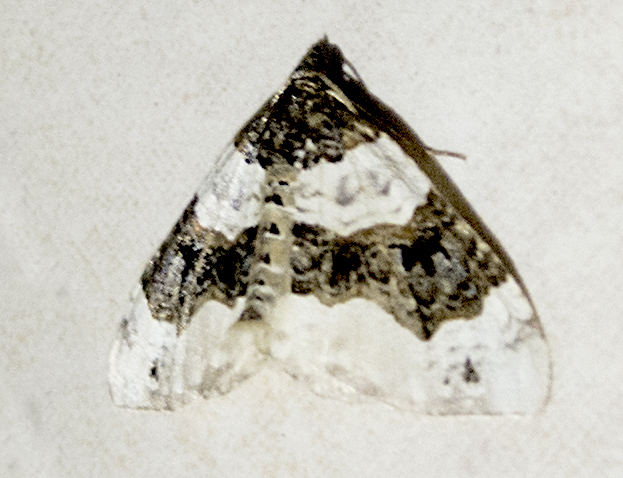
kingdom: Animalia
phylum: Arthropoda
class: Insecta
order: Lepidoptera
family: Geometridae
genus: Cosmorhoe
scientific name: Cosmorhoe ocellata
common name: Purple bar
